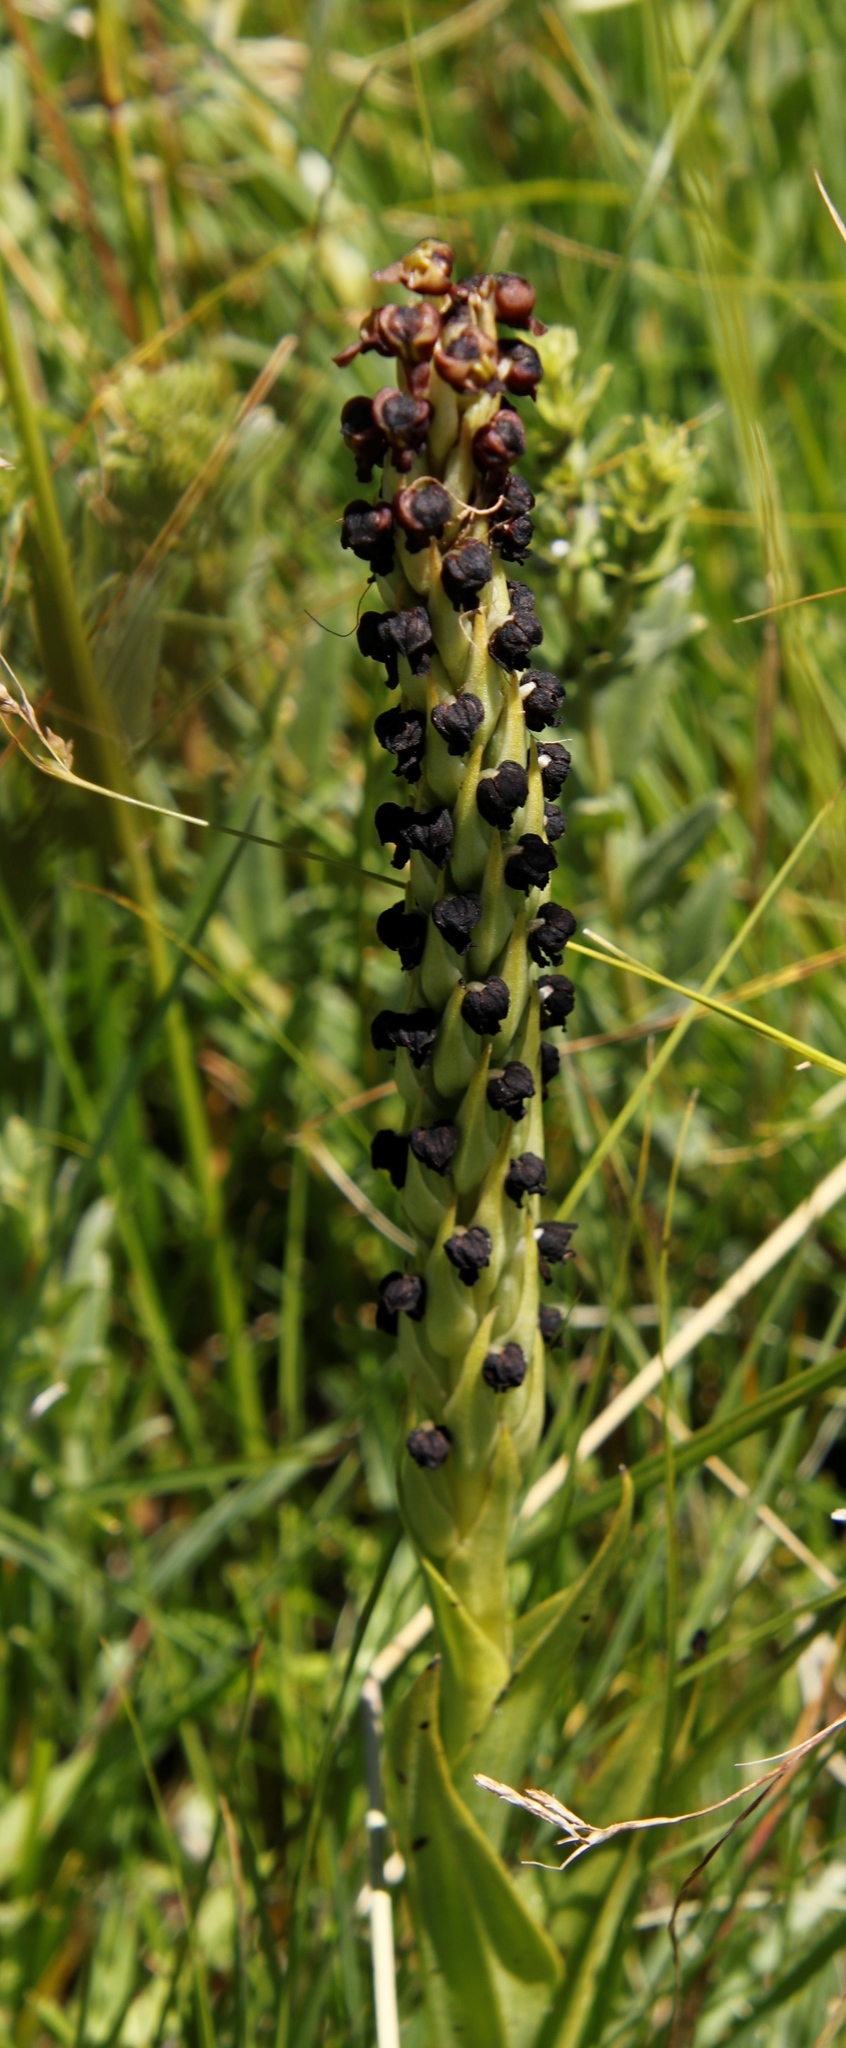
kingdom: Plantae
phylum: Tracheophyta
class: Liliopsida
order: Asparagales
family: Orchidaceae
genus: Corycium
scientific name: Corycium nigrescens
